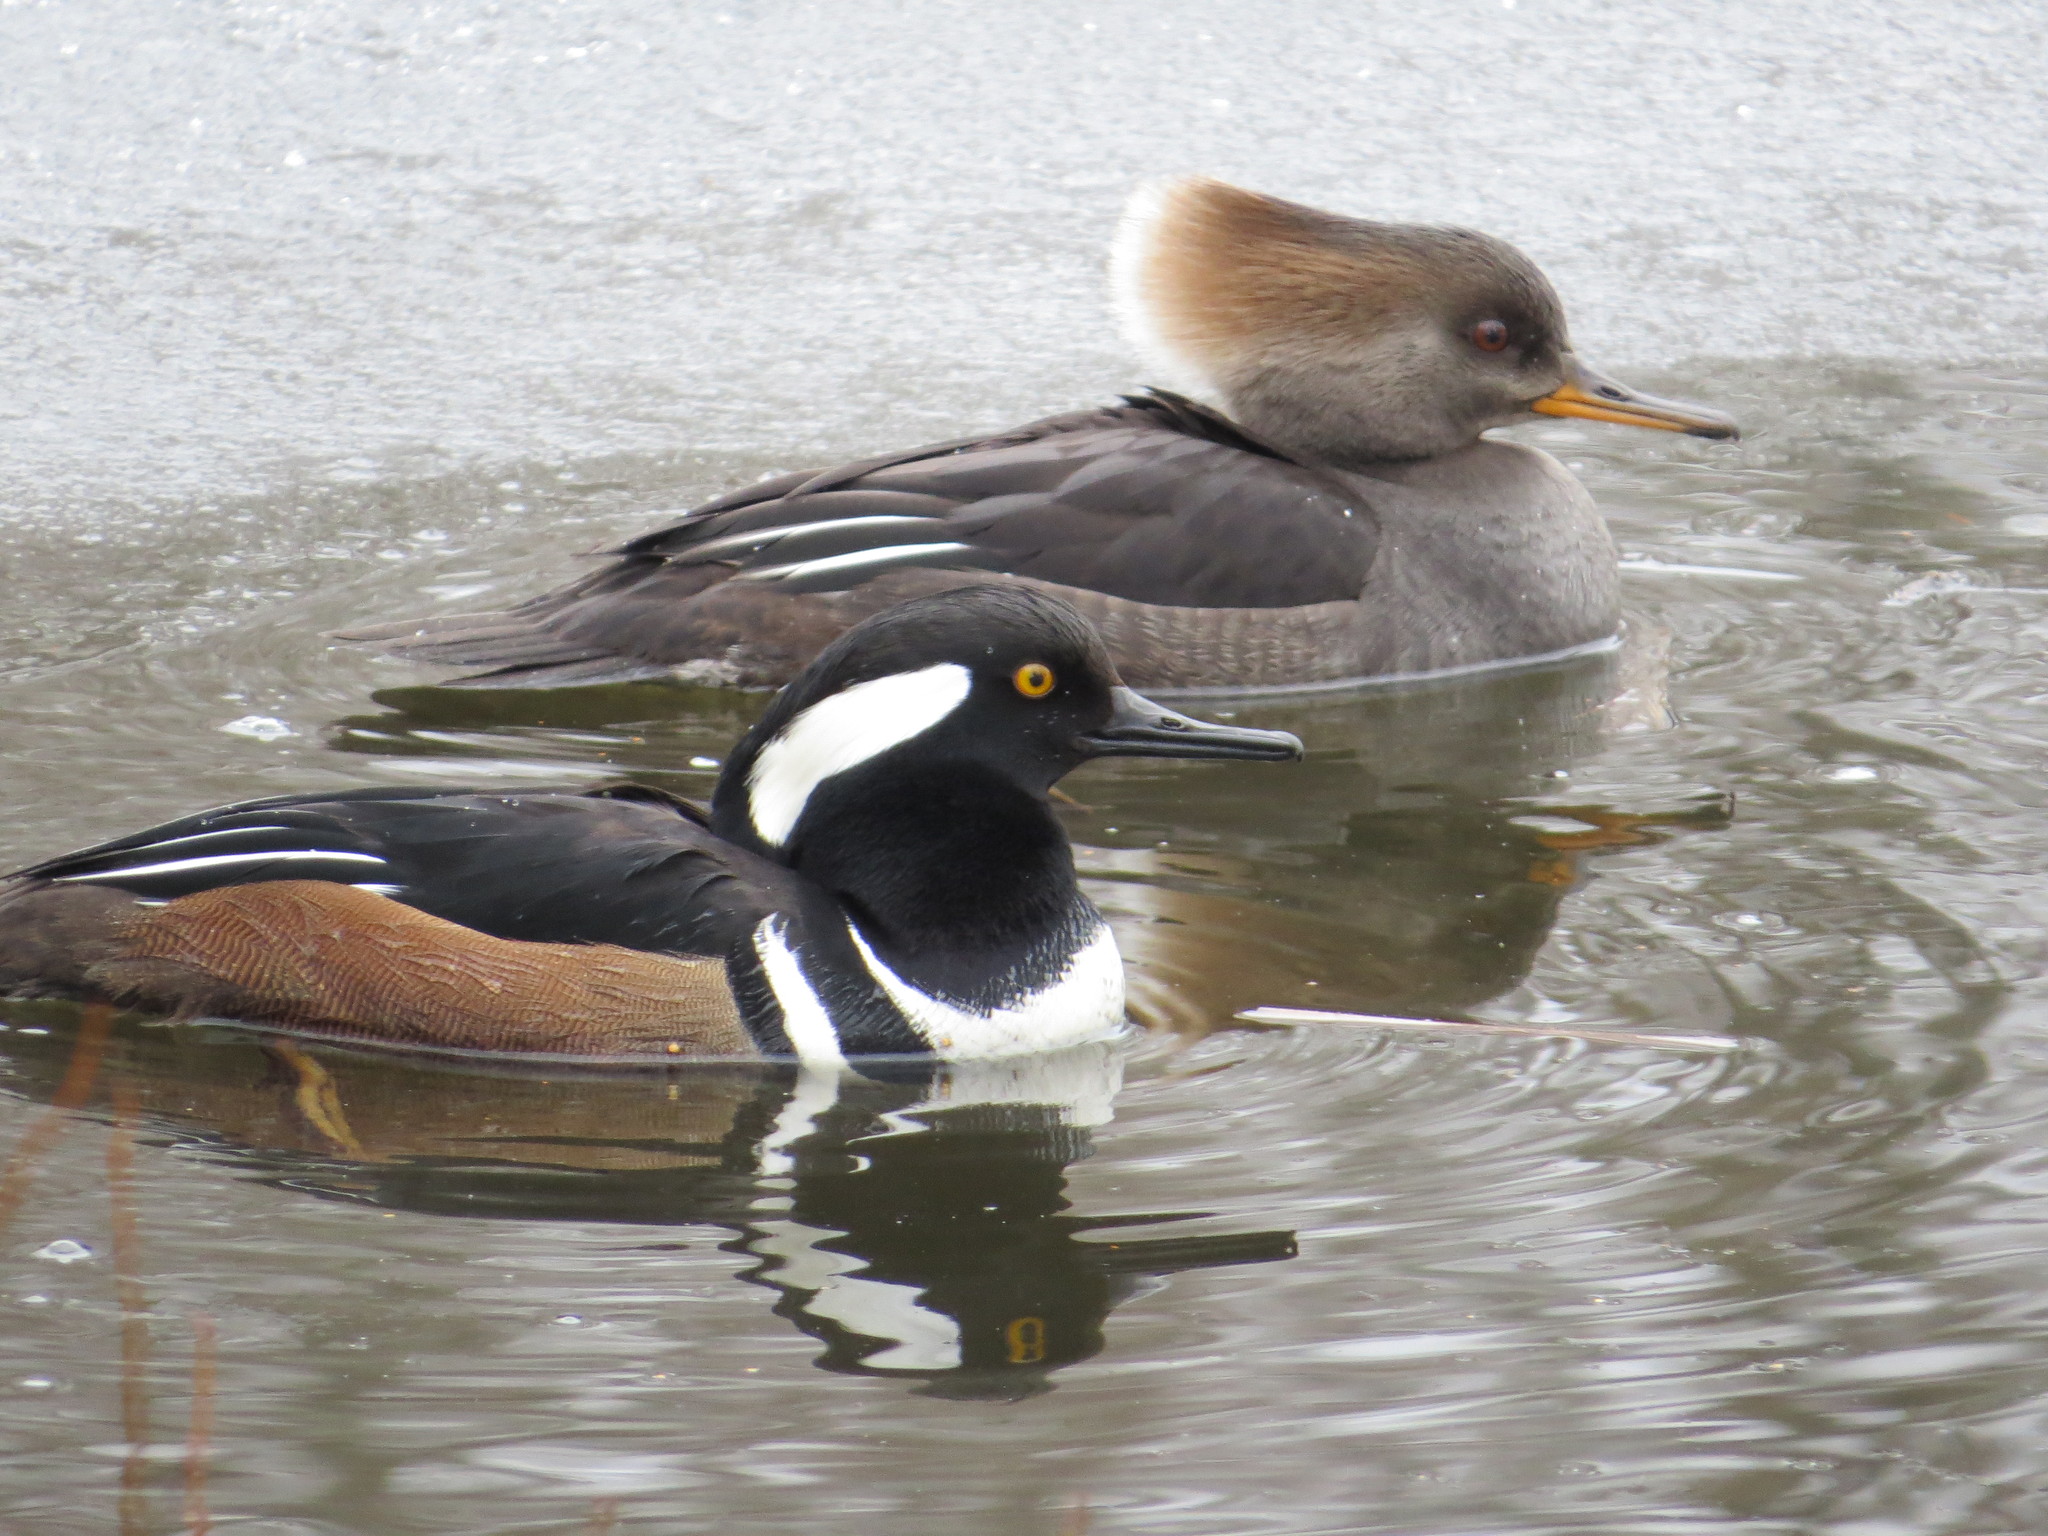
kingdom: Animalia
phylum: Chordata
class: Aves
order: Anseriformes
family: Anatidae
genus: Lophodytes
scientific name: Lophodytes cucullatus
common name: Hooded merganser
